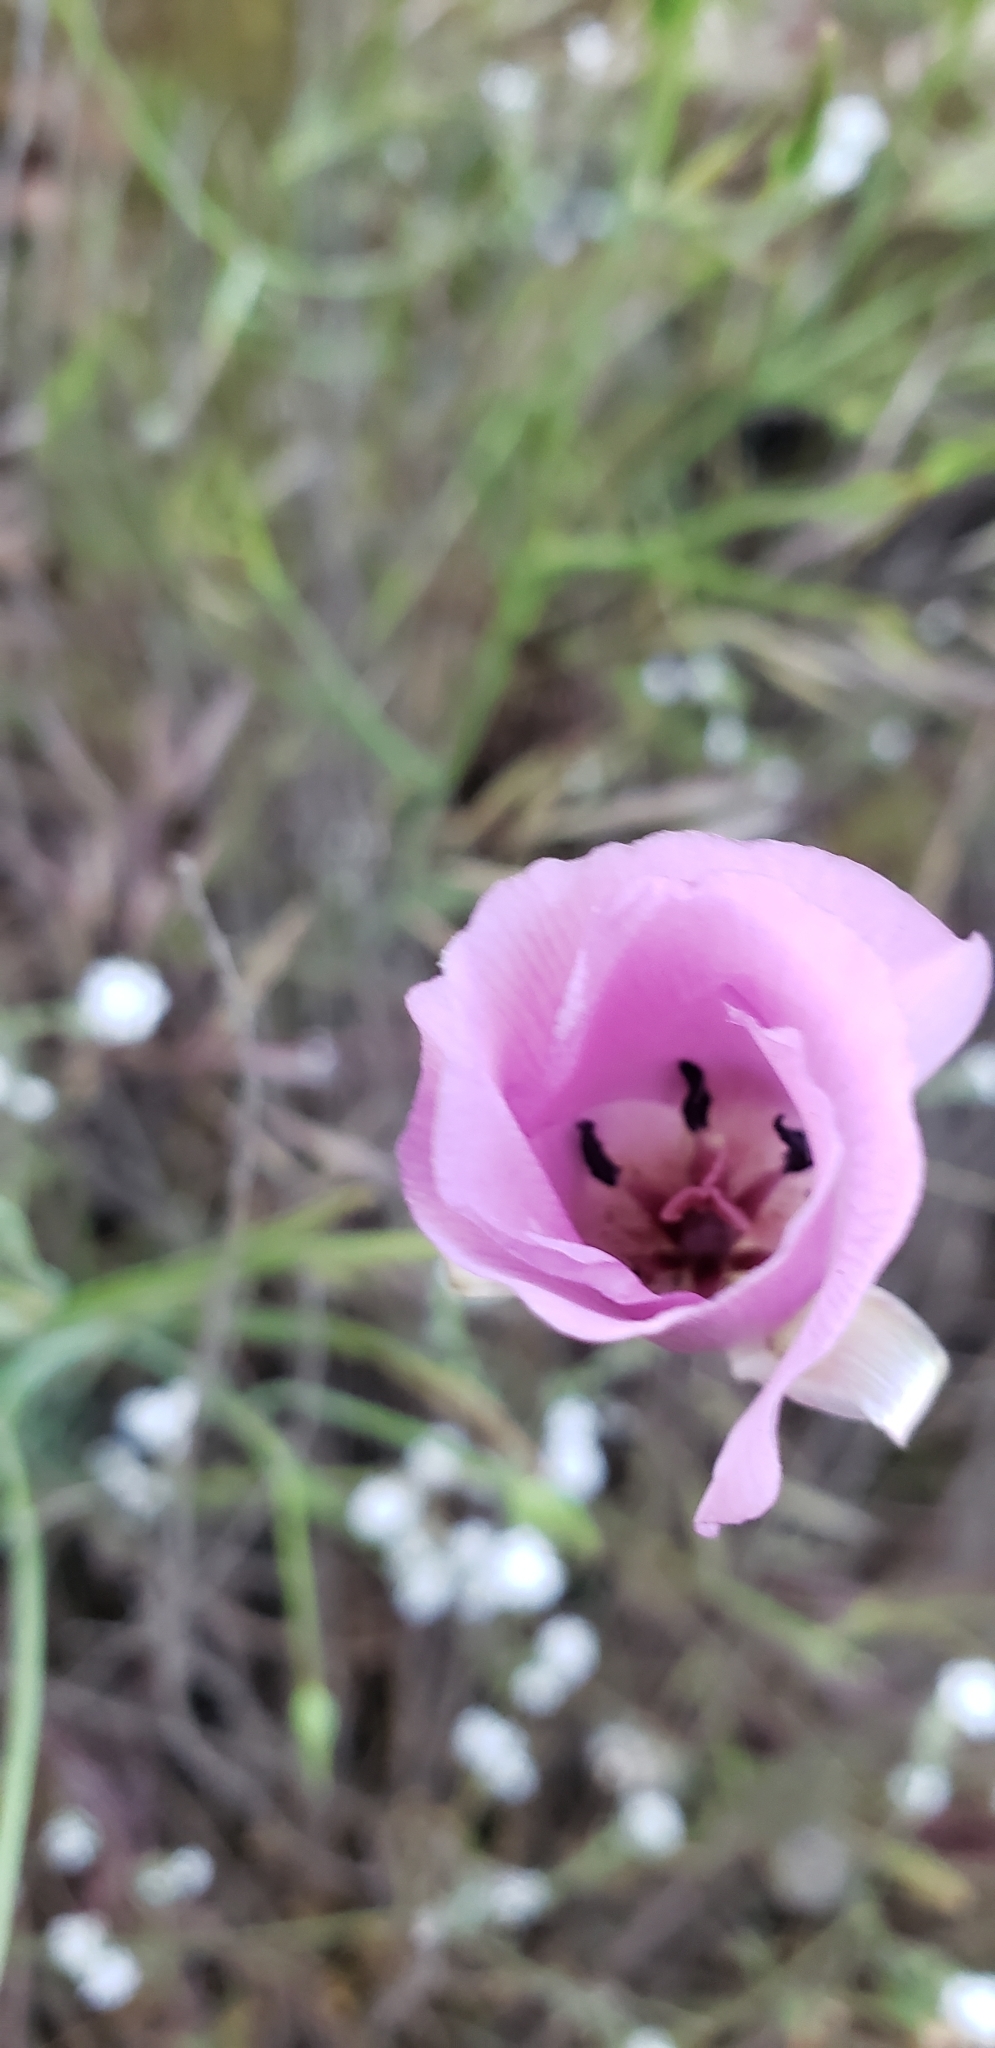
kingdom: Plantae
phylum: Tracheophyta
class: Liliopsida
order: Liliales
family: Liliaceae
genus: Calochortus
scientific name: Calochortus splendens
